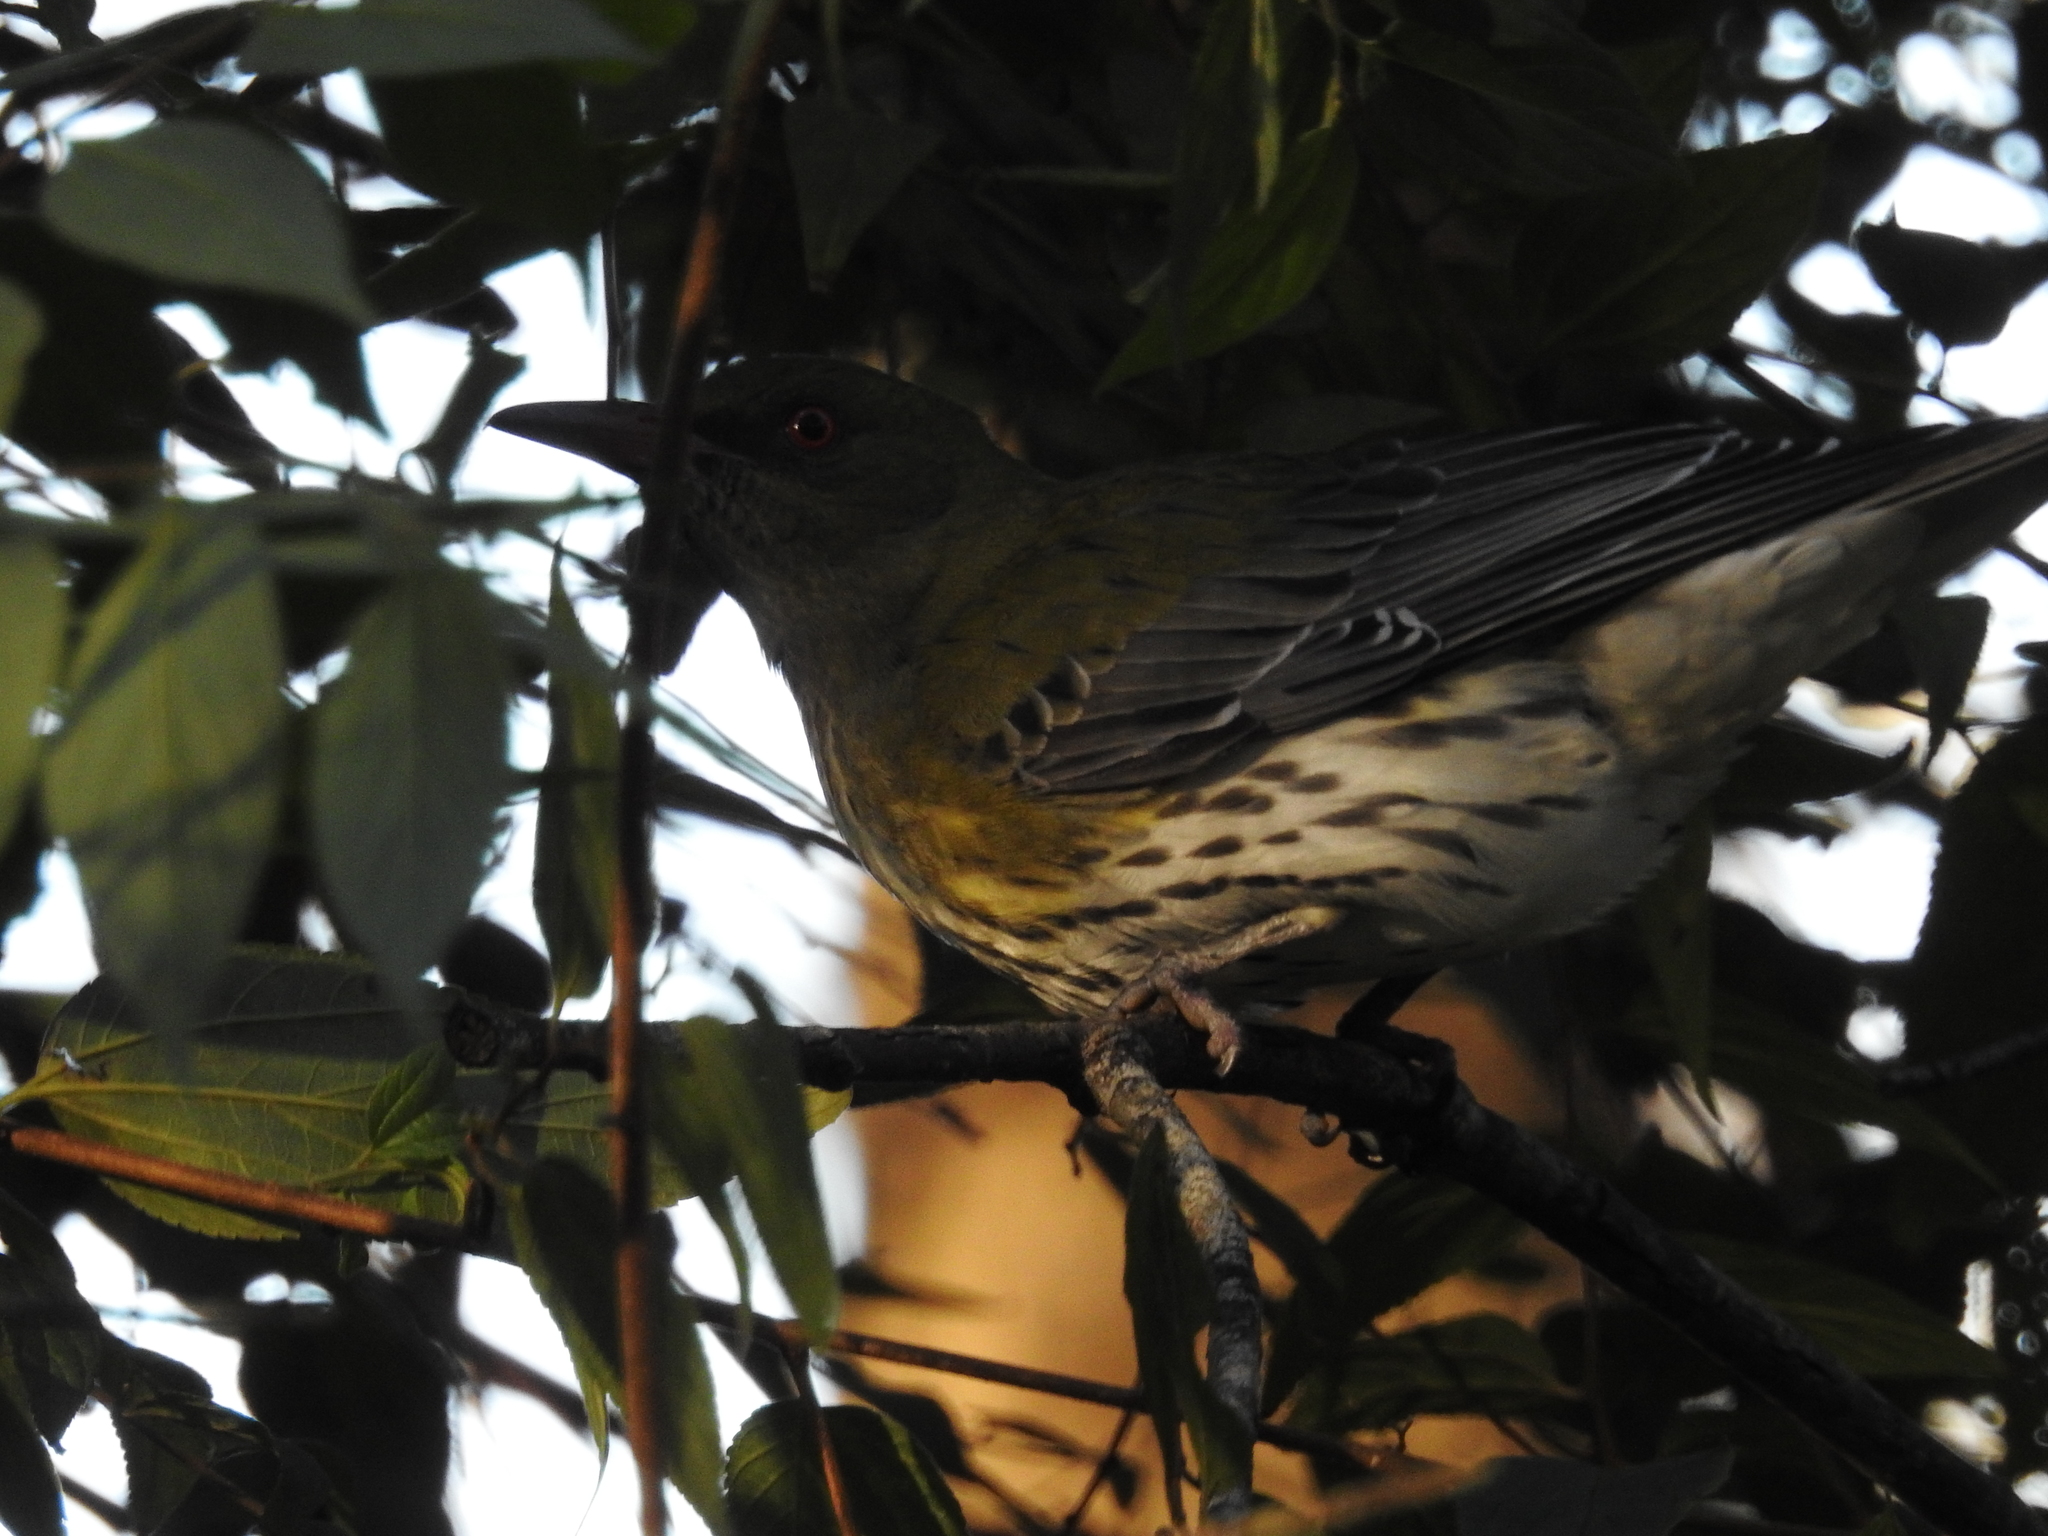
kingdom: Animalia
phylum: Chordata
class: Aves
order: Passeriformes
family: Oriolidae
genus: Oriolus
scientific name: Oriolus sagittatus
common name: Olive-backed oriole
